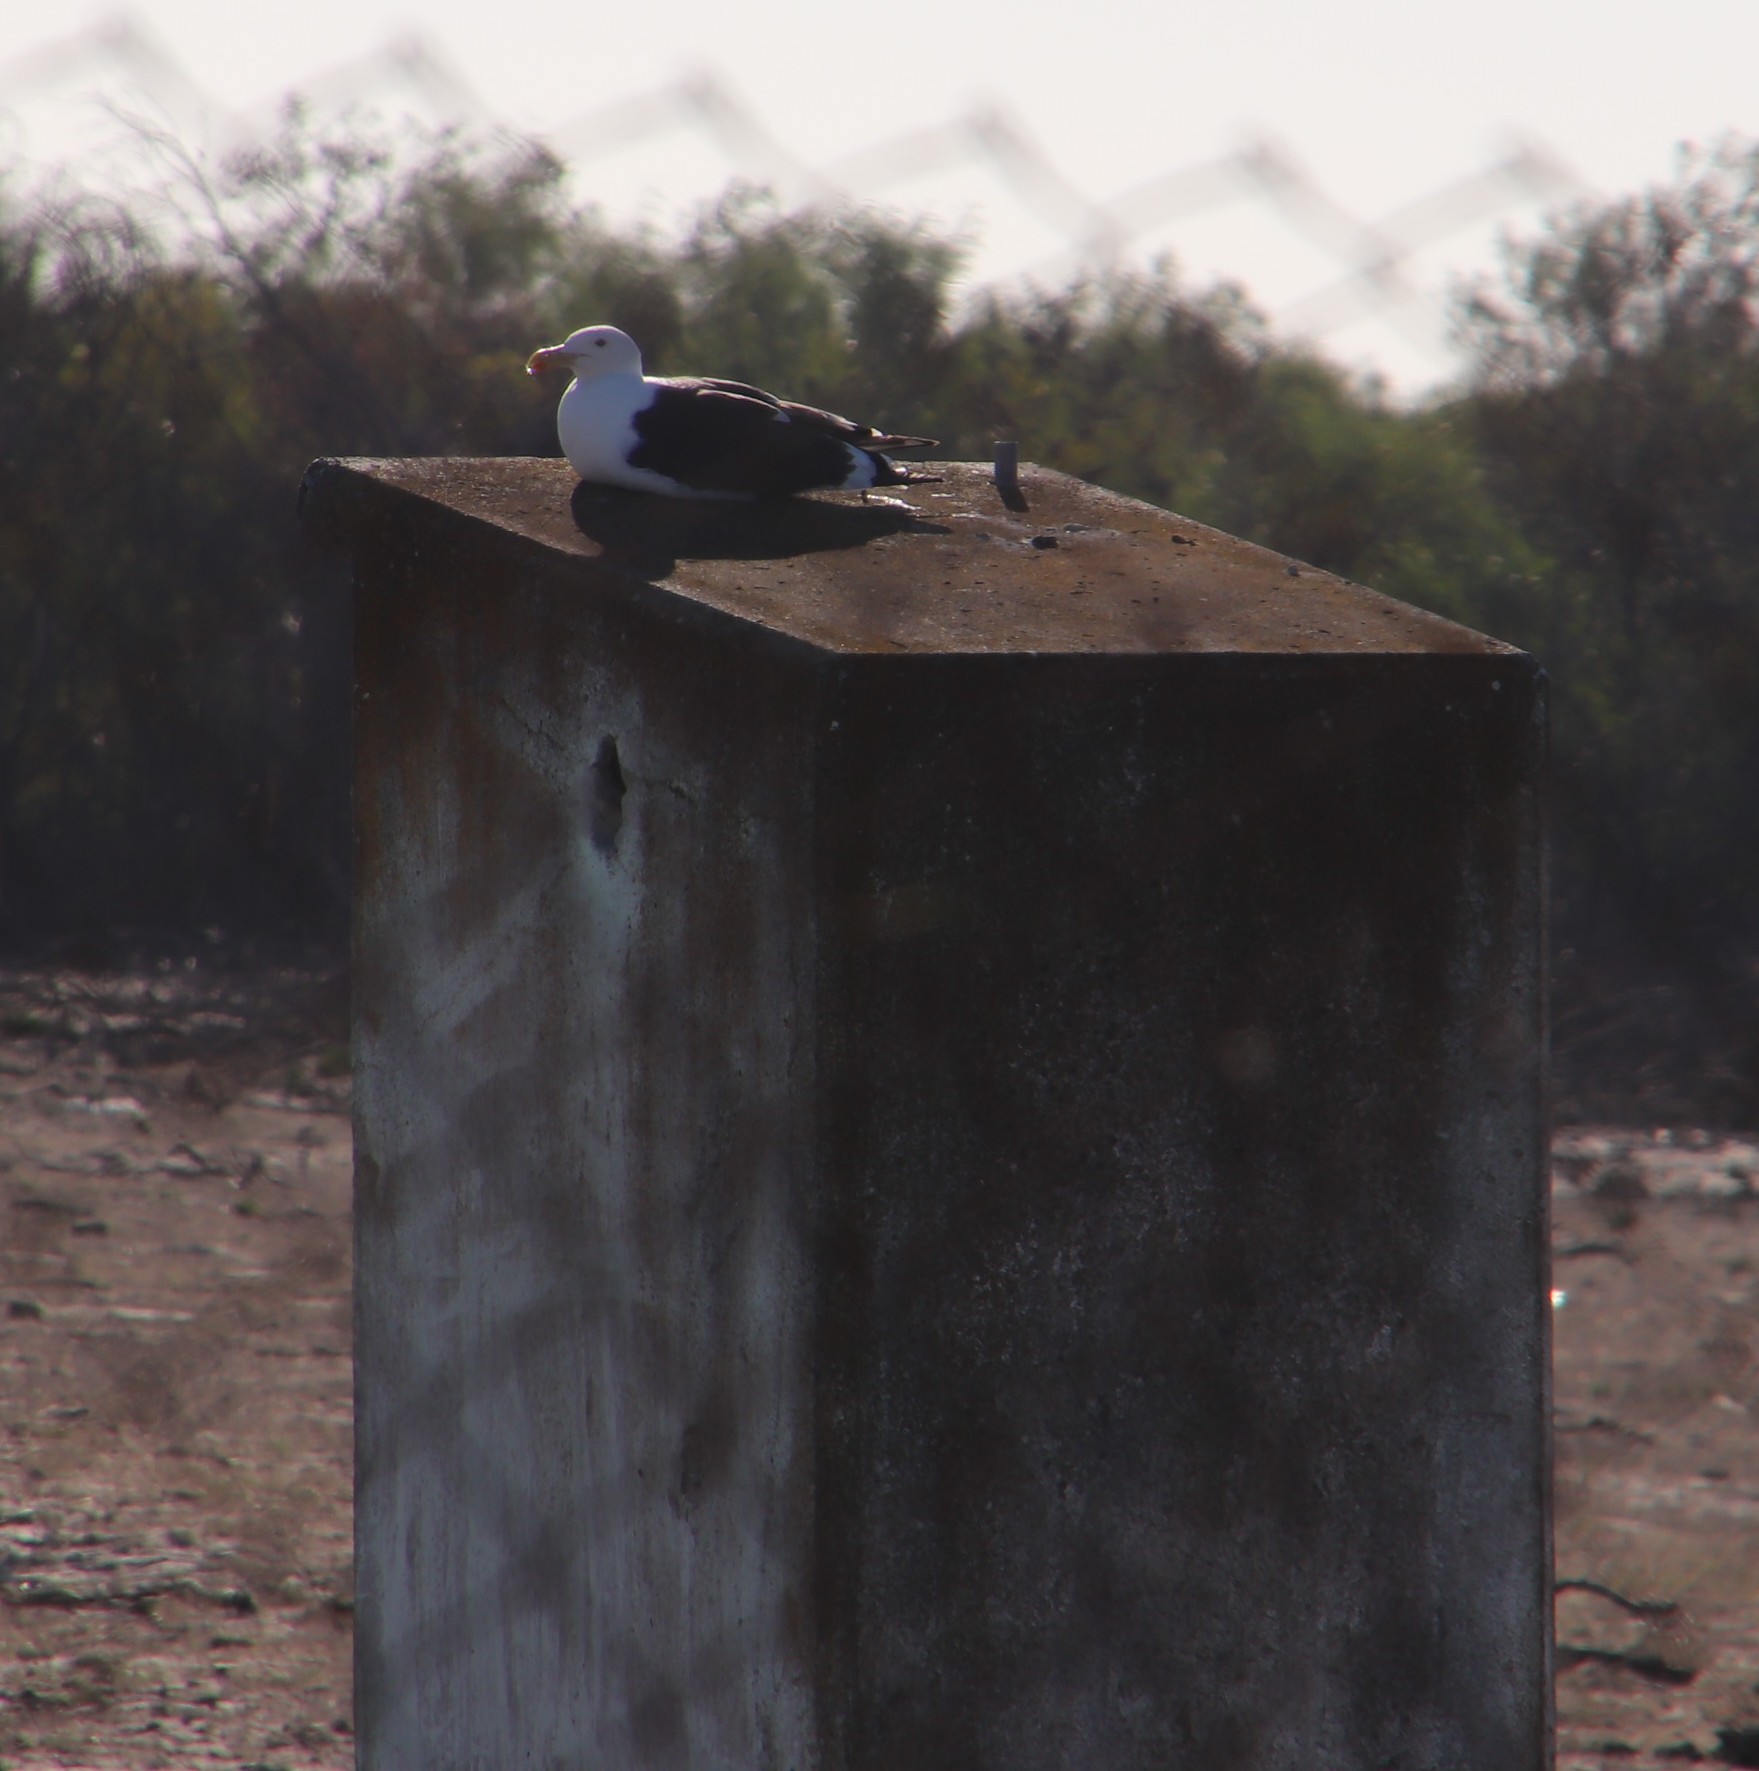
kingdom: Animalia
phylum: Chordata
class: Aves
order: Charadriiformes
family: Laridae
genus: Larus
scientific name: Larus dominicanus
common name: Kelp gull
